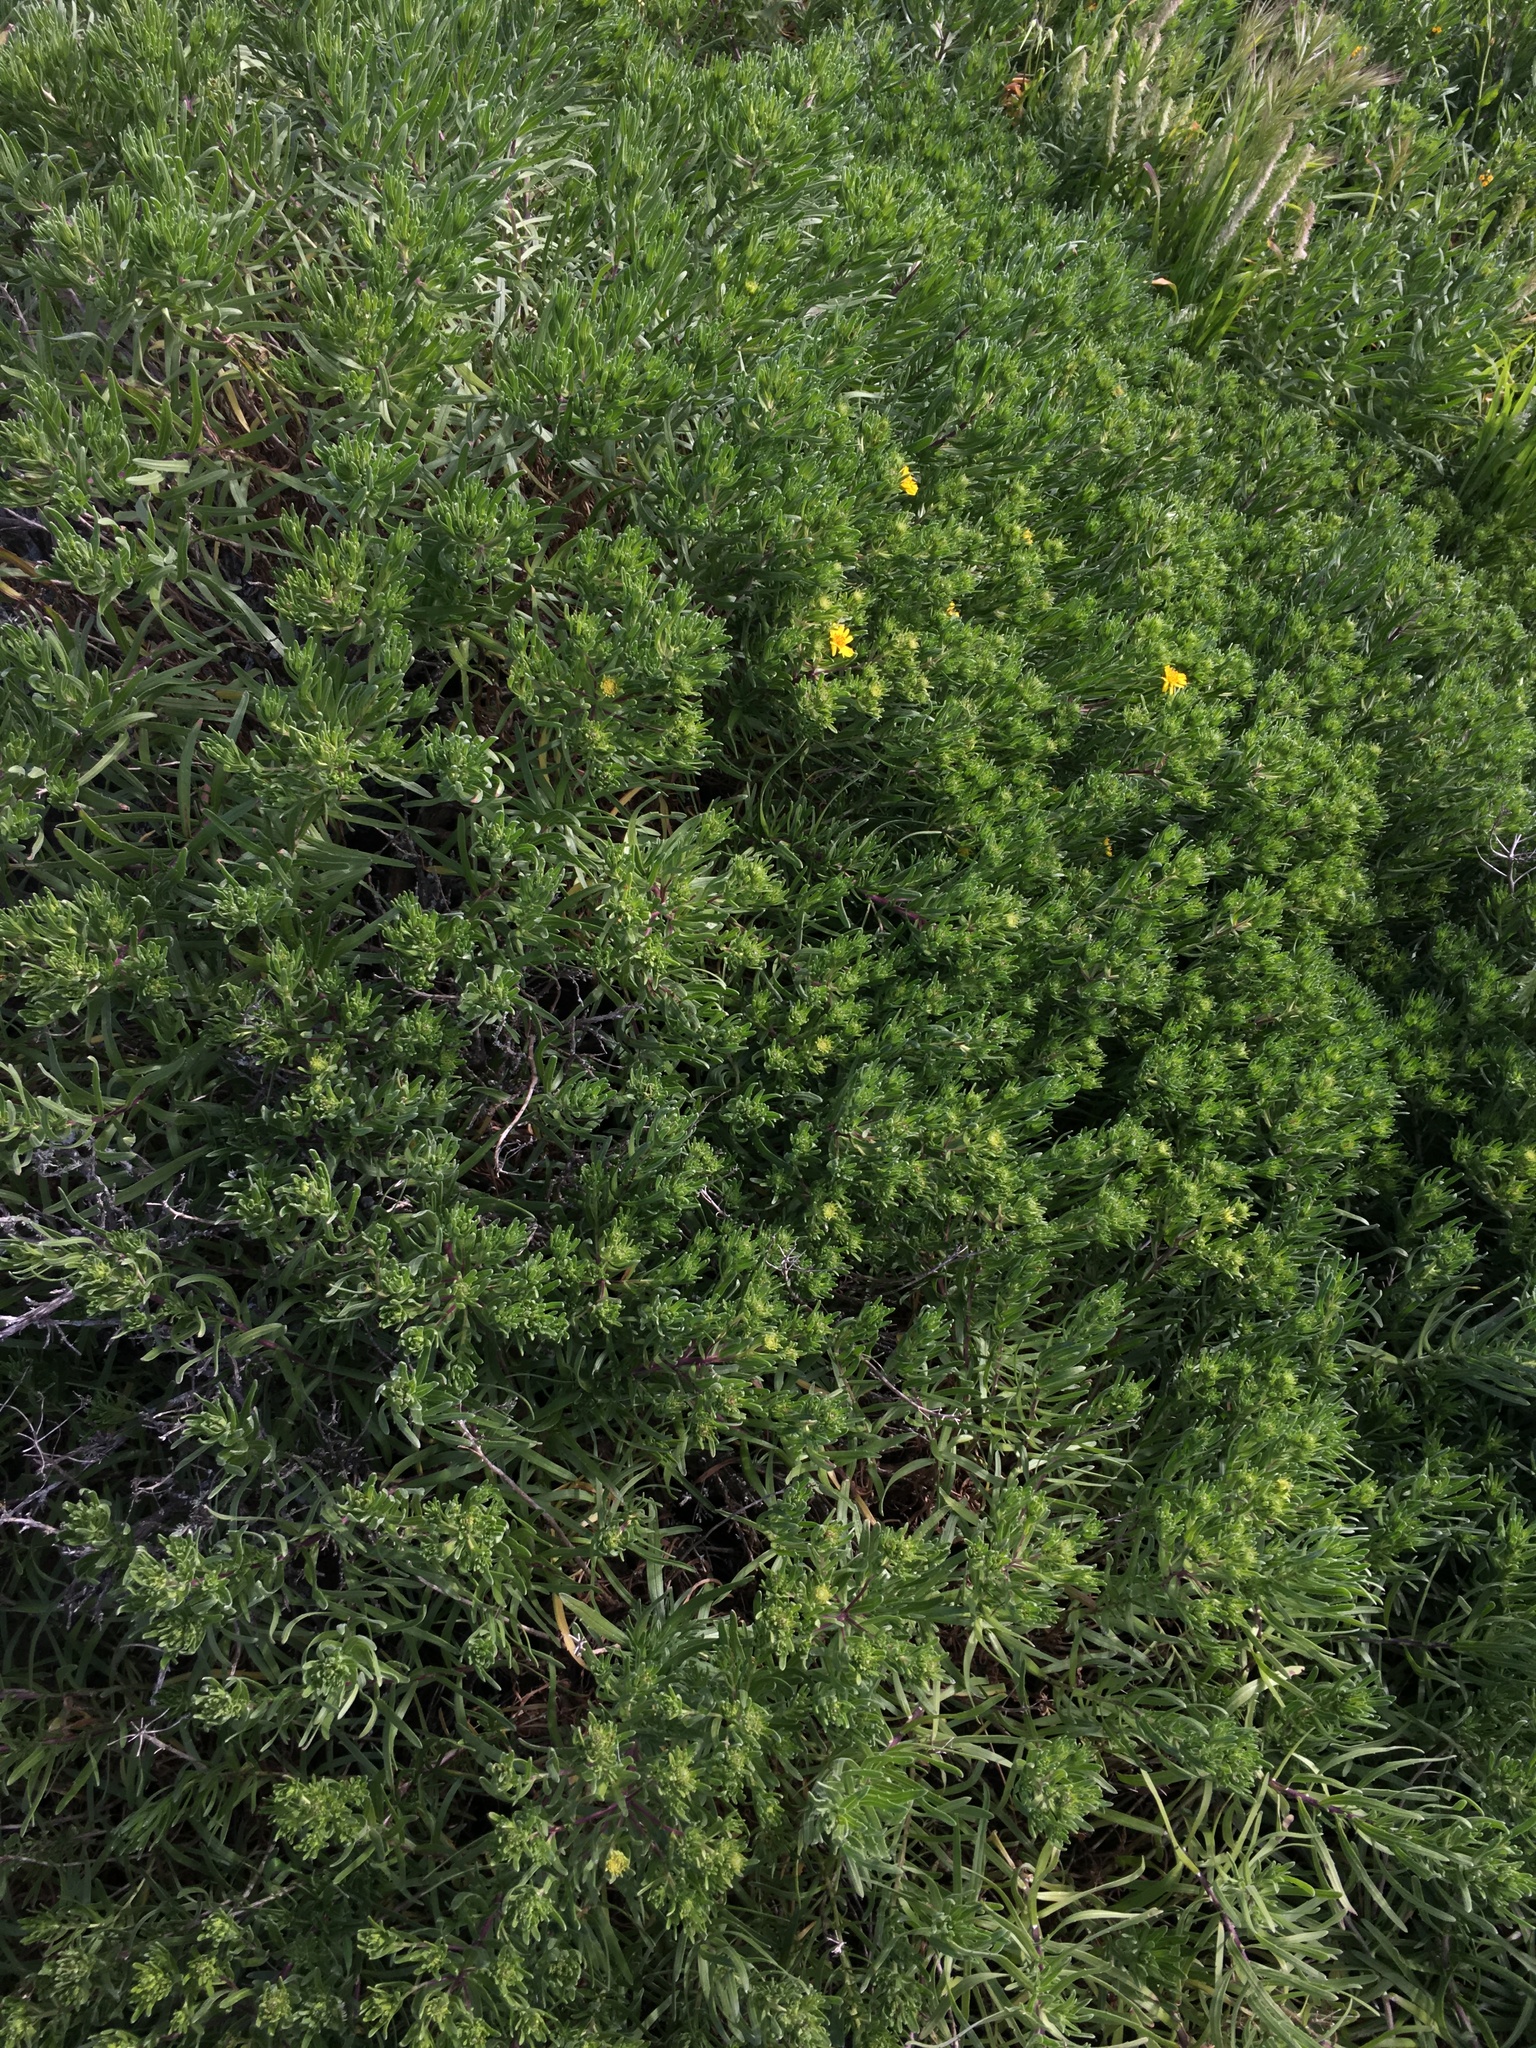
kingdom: Plantae
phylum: Tracheophyta
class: Magnoliopsida
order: Asterales
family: Asteraceae
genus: Deinandra
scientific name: Deinandra clementina
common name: Island tarplant
